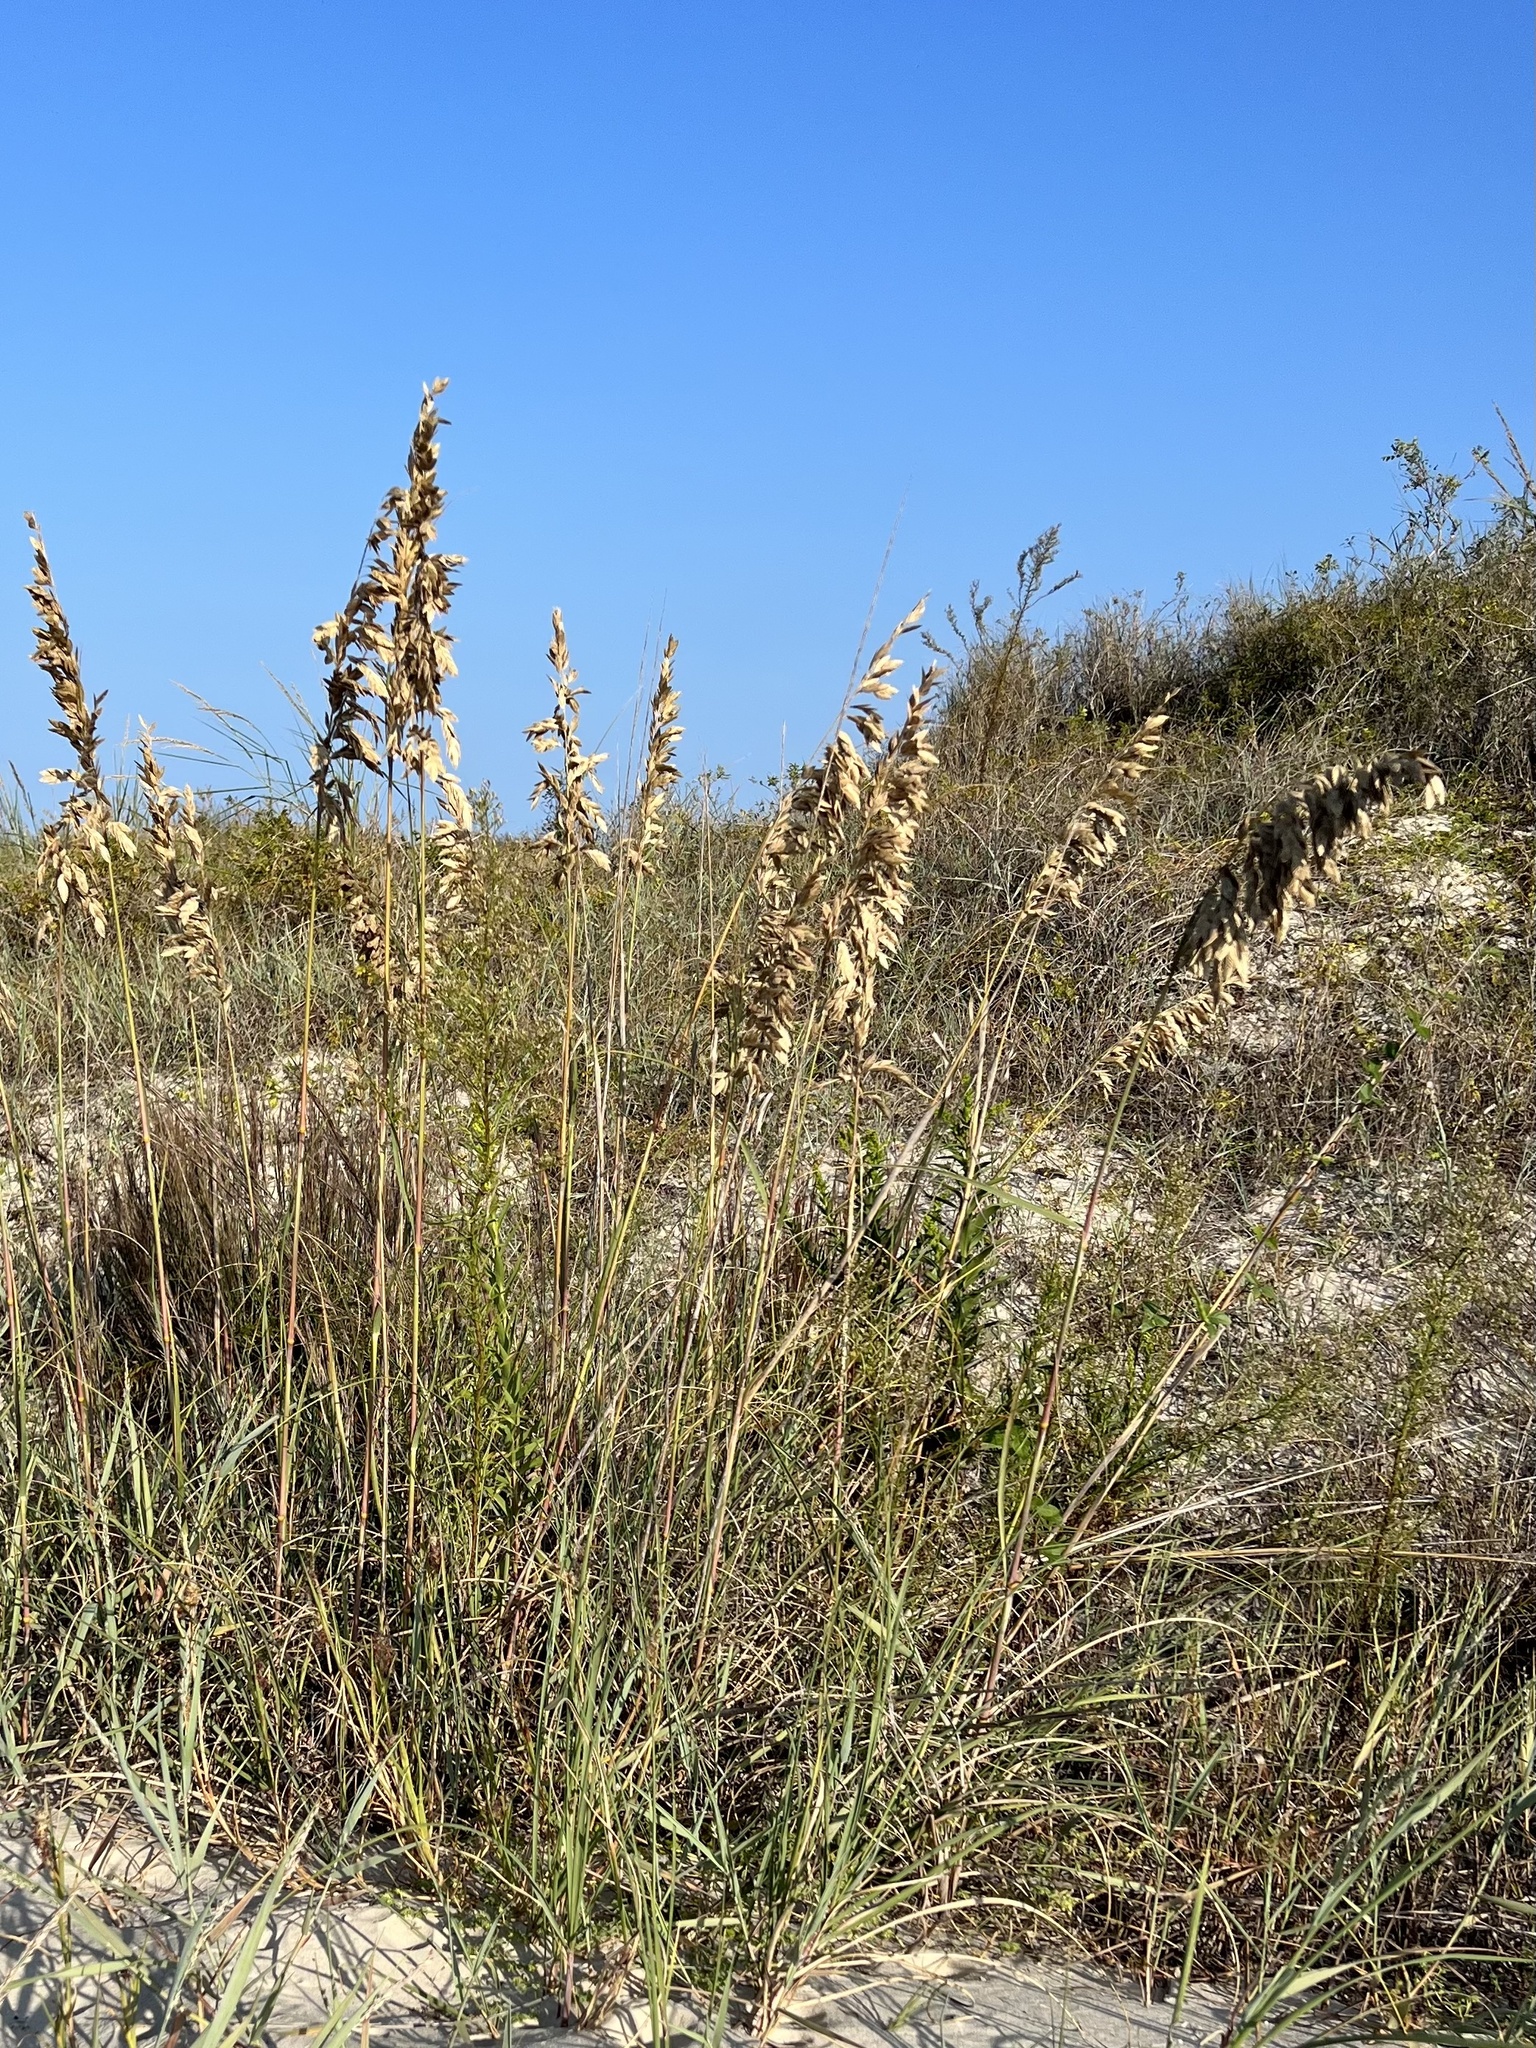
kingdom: Plantae
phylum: Tracheophyta
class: Liliopsida
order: Poales
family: Poaceae
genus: Uniola
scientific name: Uniola paniculata
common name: Seaside-oats
